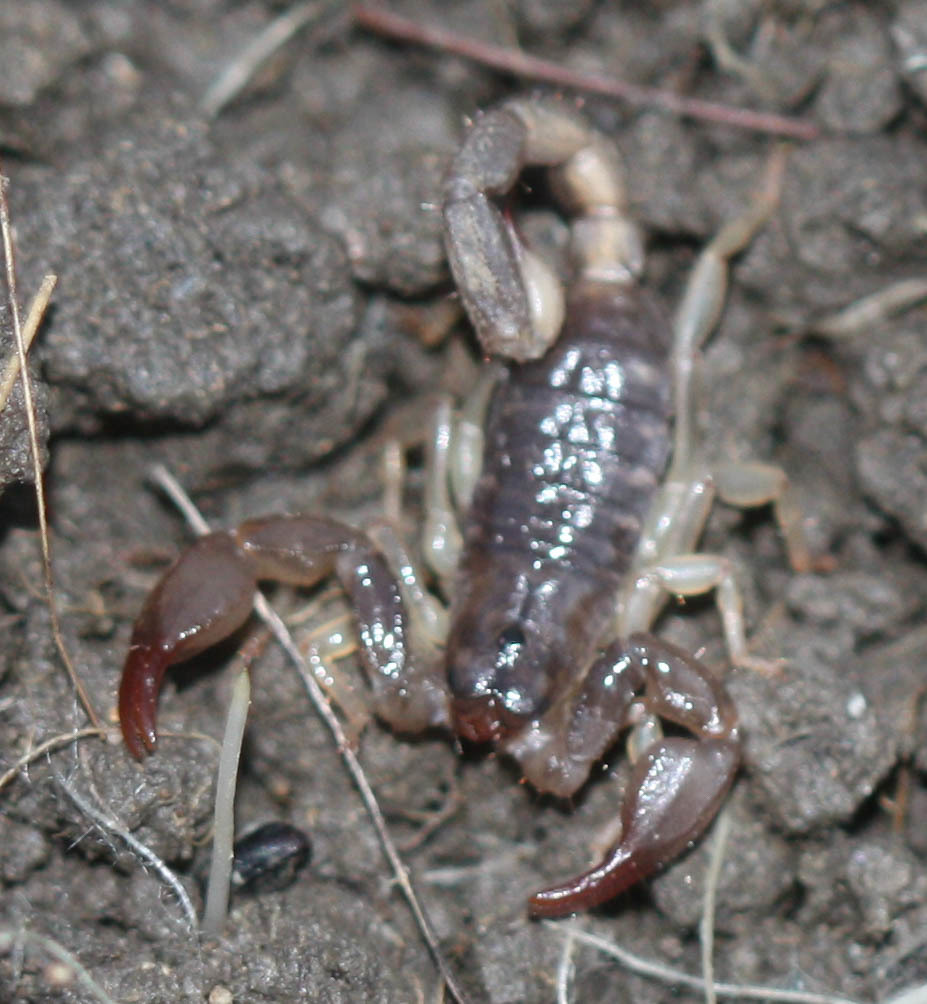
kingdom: Animalia
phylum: Arthropoda
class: Arachnida
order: Scorpiones
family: Chactidae
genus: Uroctonus
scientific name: Uroctonus mordax
